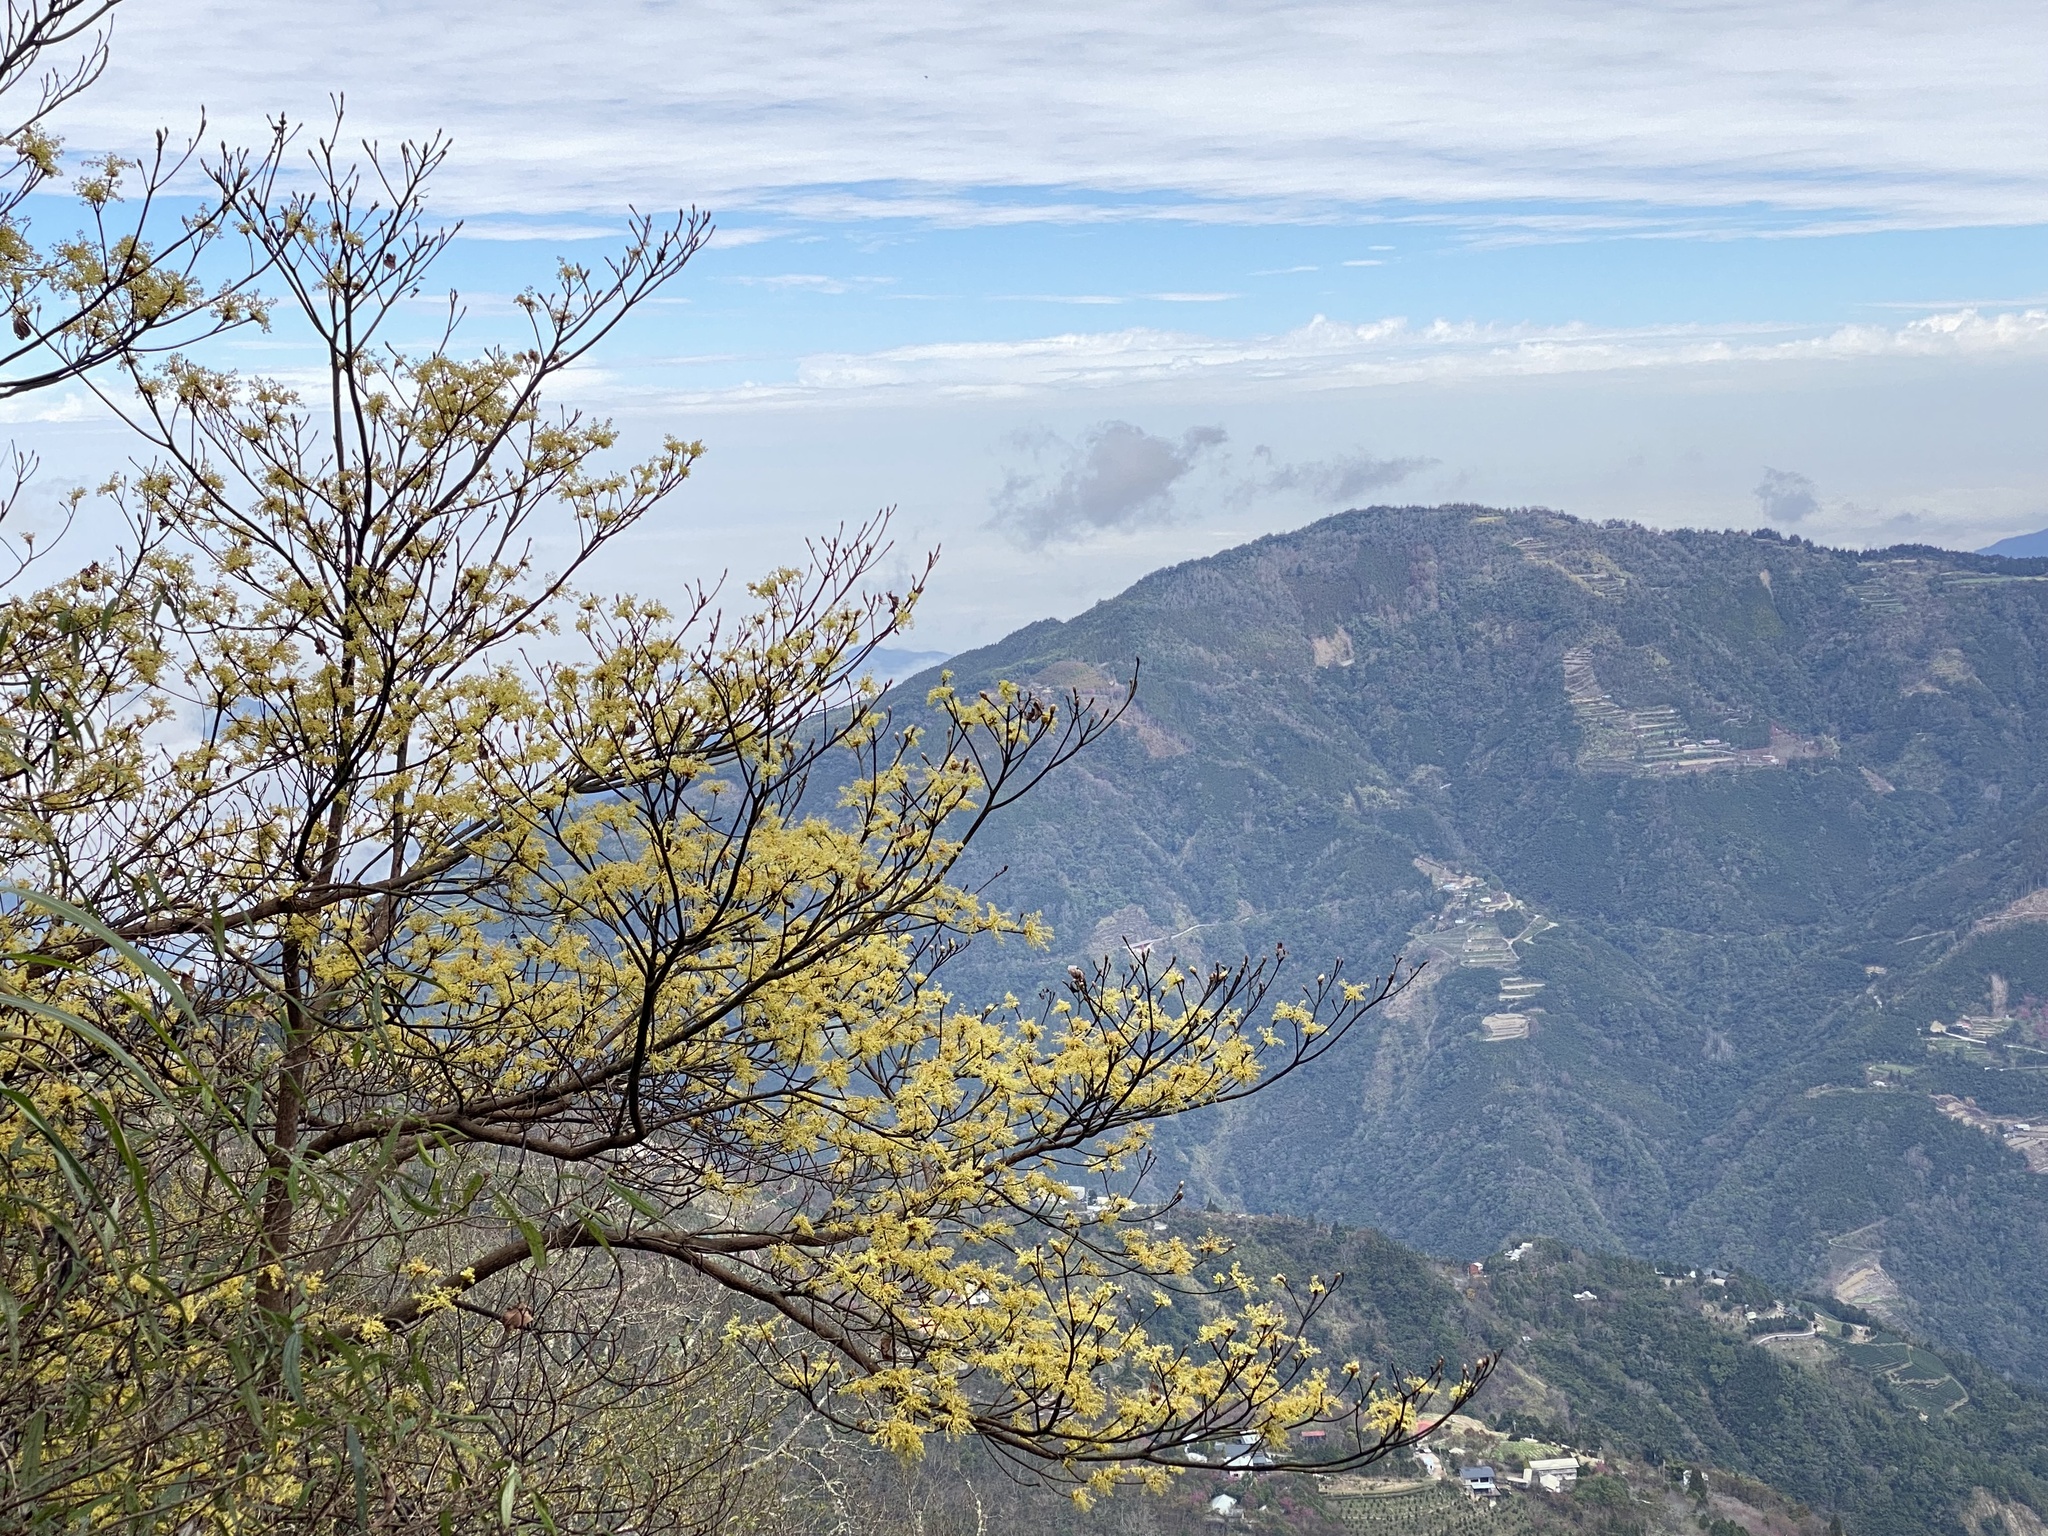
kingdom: Plantae
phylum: Tracheophyta
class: Magnoliopsida
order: Laurales
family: Lauraceae
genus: Sassafras
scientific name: Sassafras randaiense
